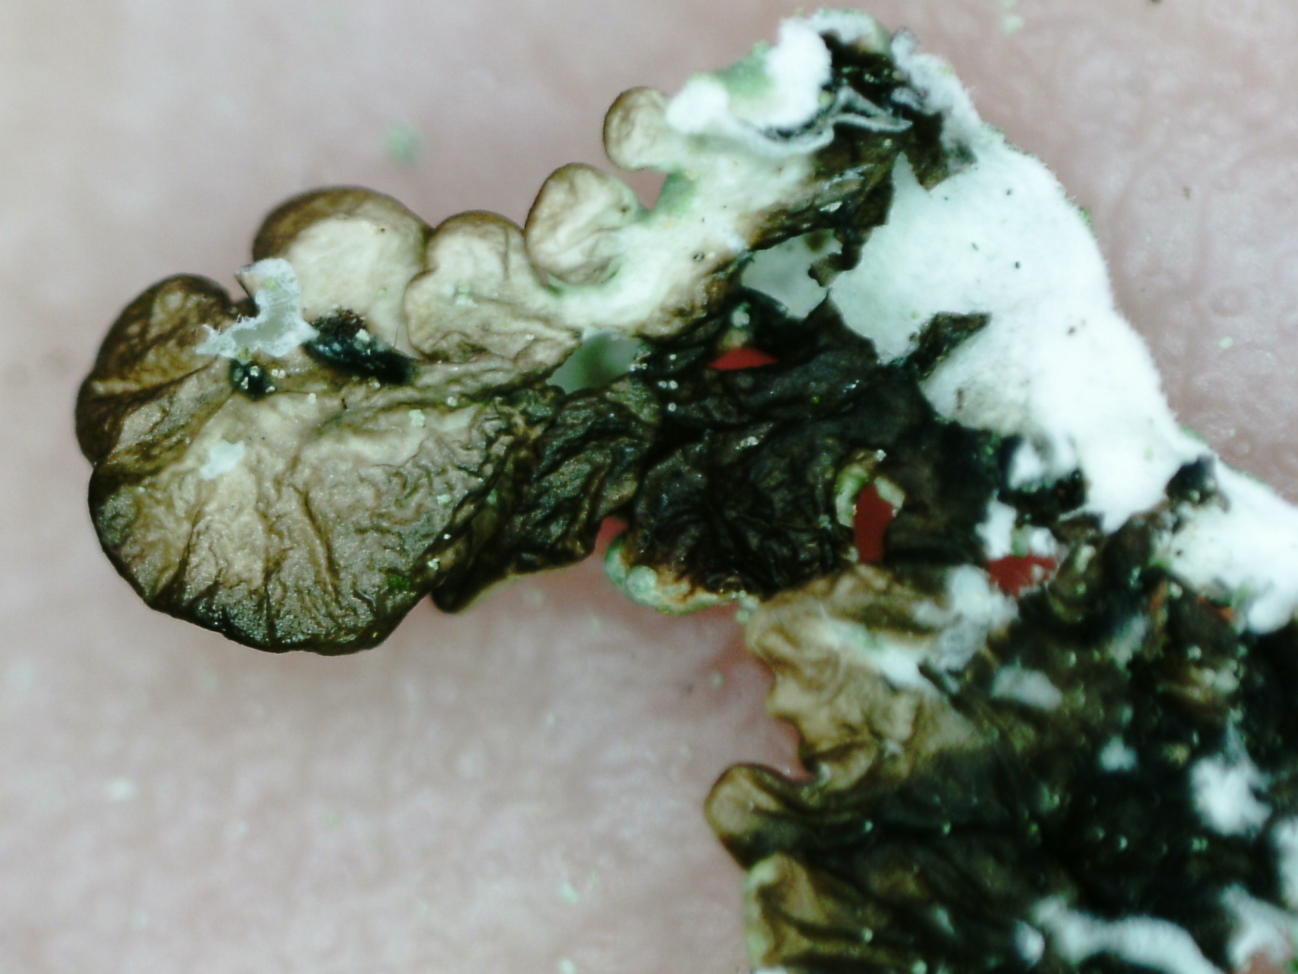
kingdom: Fungi
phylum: Ascomycota
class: Lecanoromycetes
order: Lecanorales
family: Parmeliaceae
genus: Hypogymnia
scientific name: Hypogymnia farinacea
